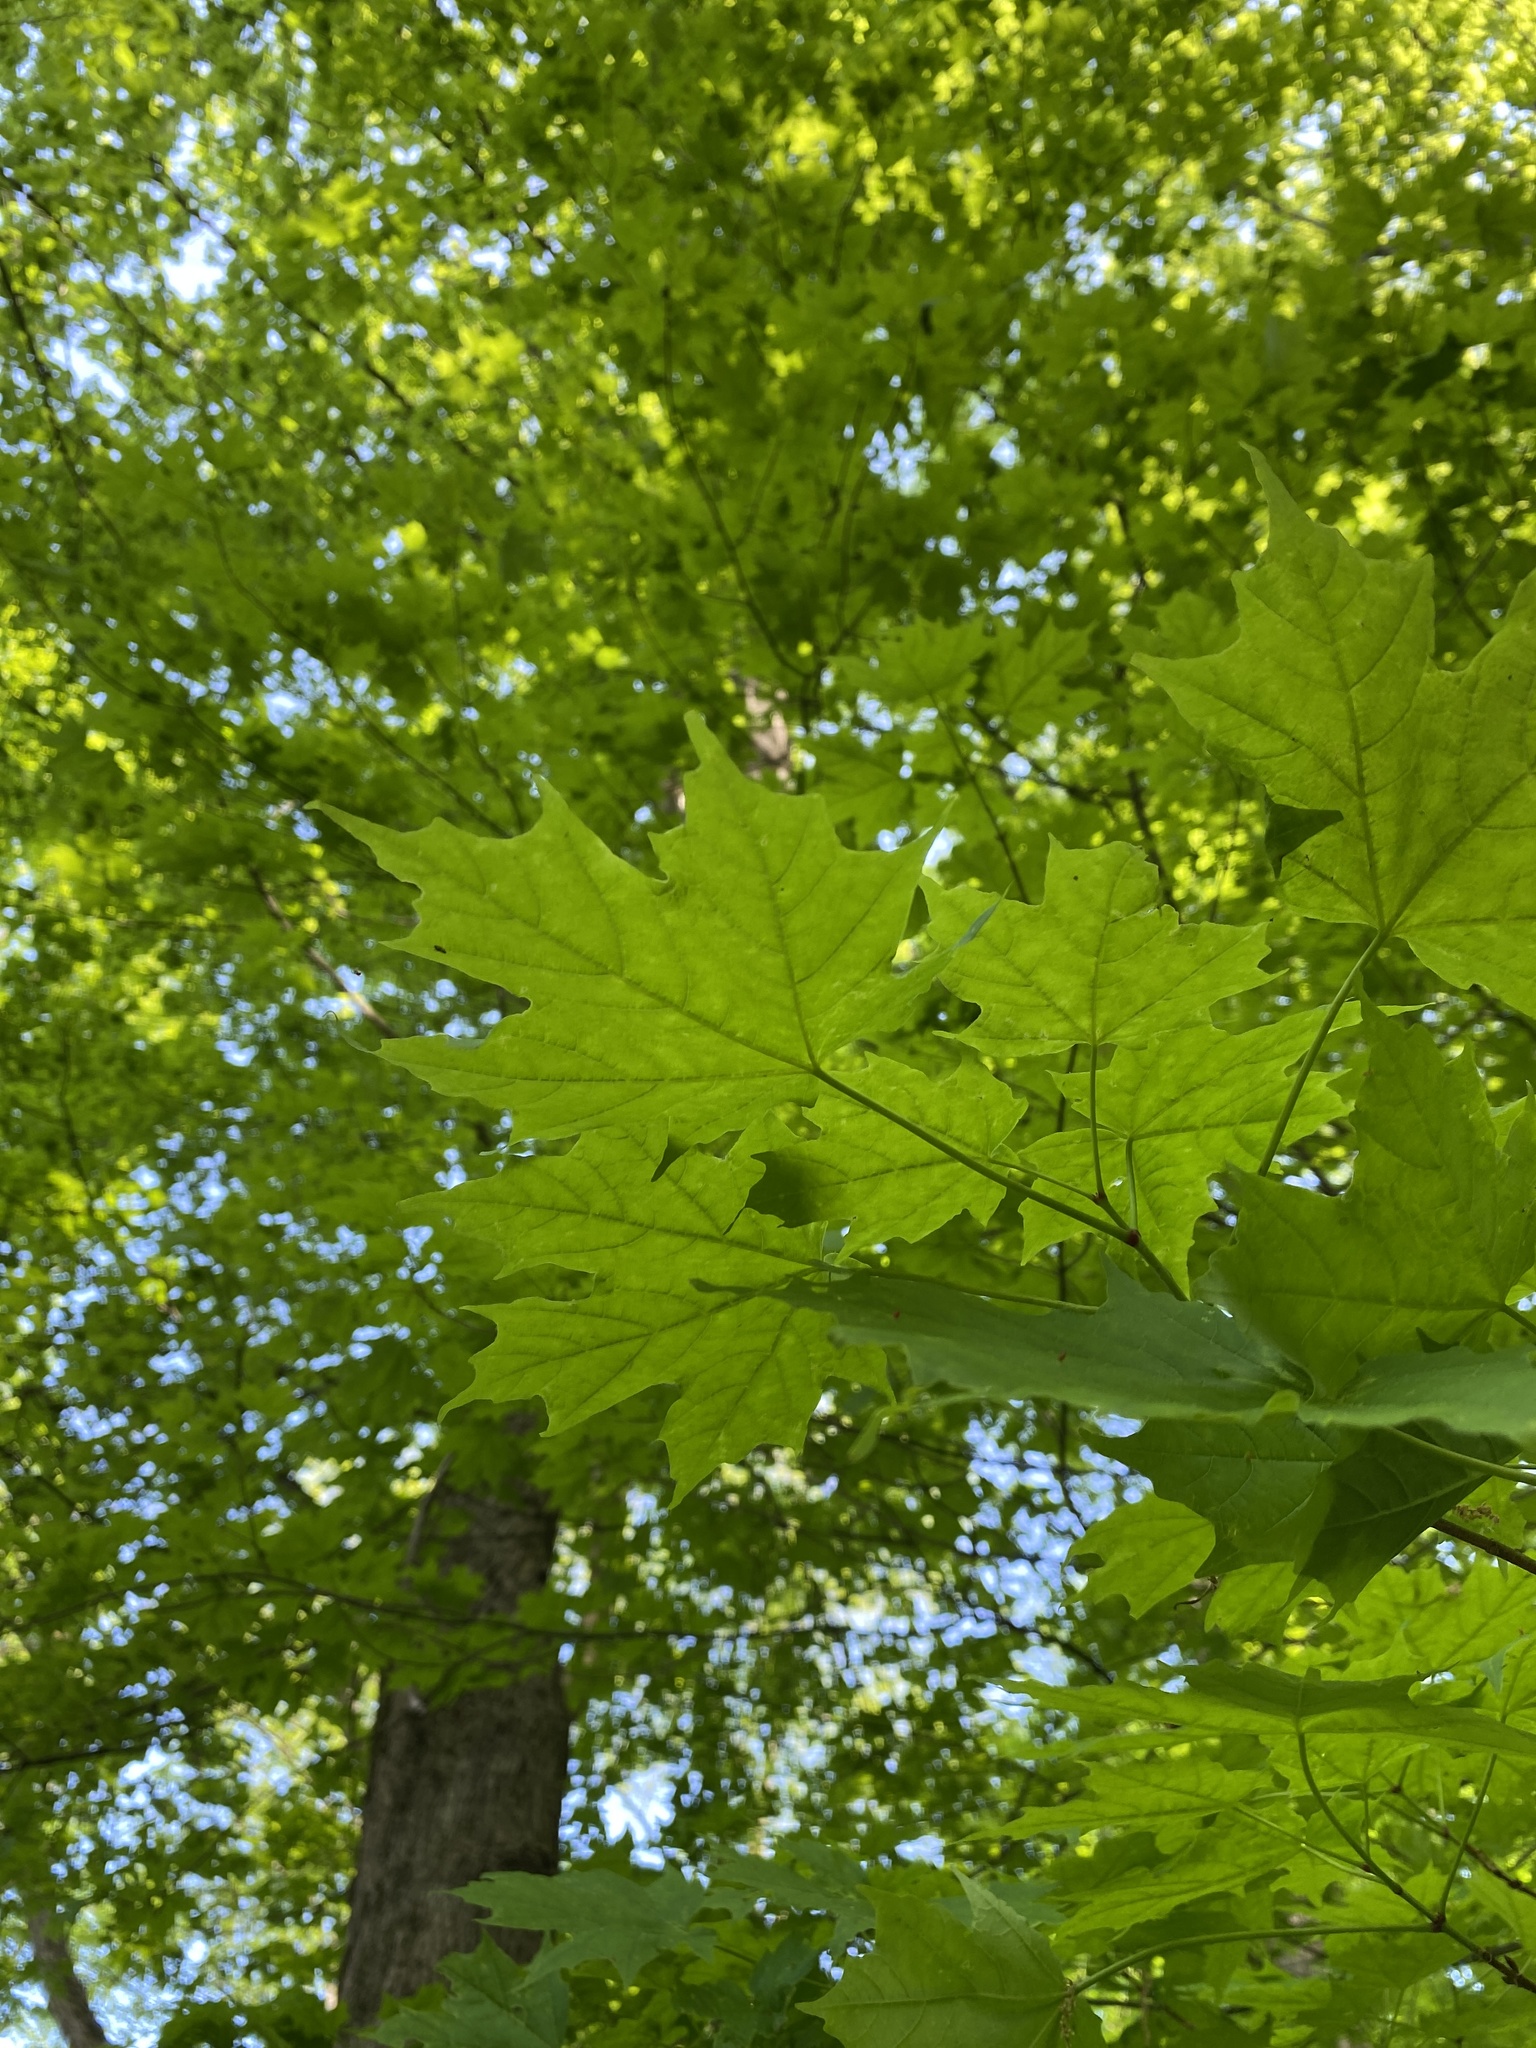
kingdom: Plantae
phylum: Tracheophyta
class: Magnoliopsida
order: Sapindales
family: Sapindaceae
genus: Acer
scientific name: Acer saccharum
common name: Sugar maple
